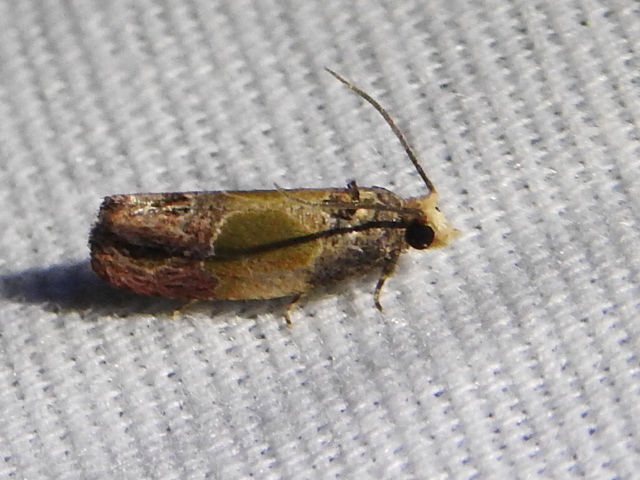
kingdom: Animalia
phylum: Arthropoda
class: Insecta
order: Lepidoptera
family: Tortricidae
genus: Eumarozia
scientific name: Eumarozia malachitana
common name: Sculptured moth
